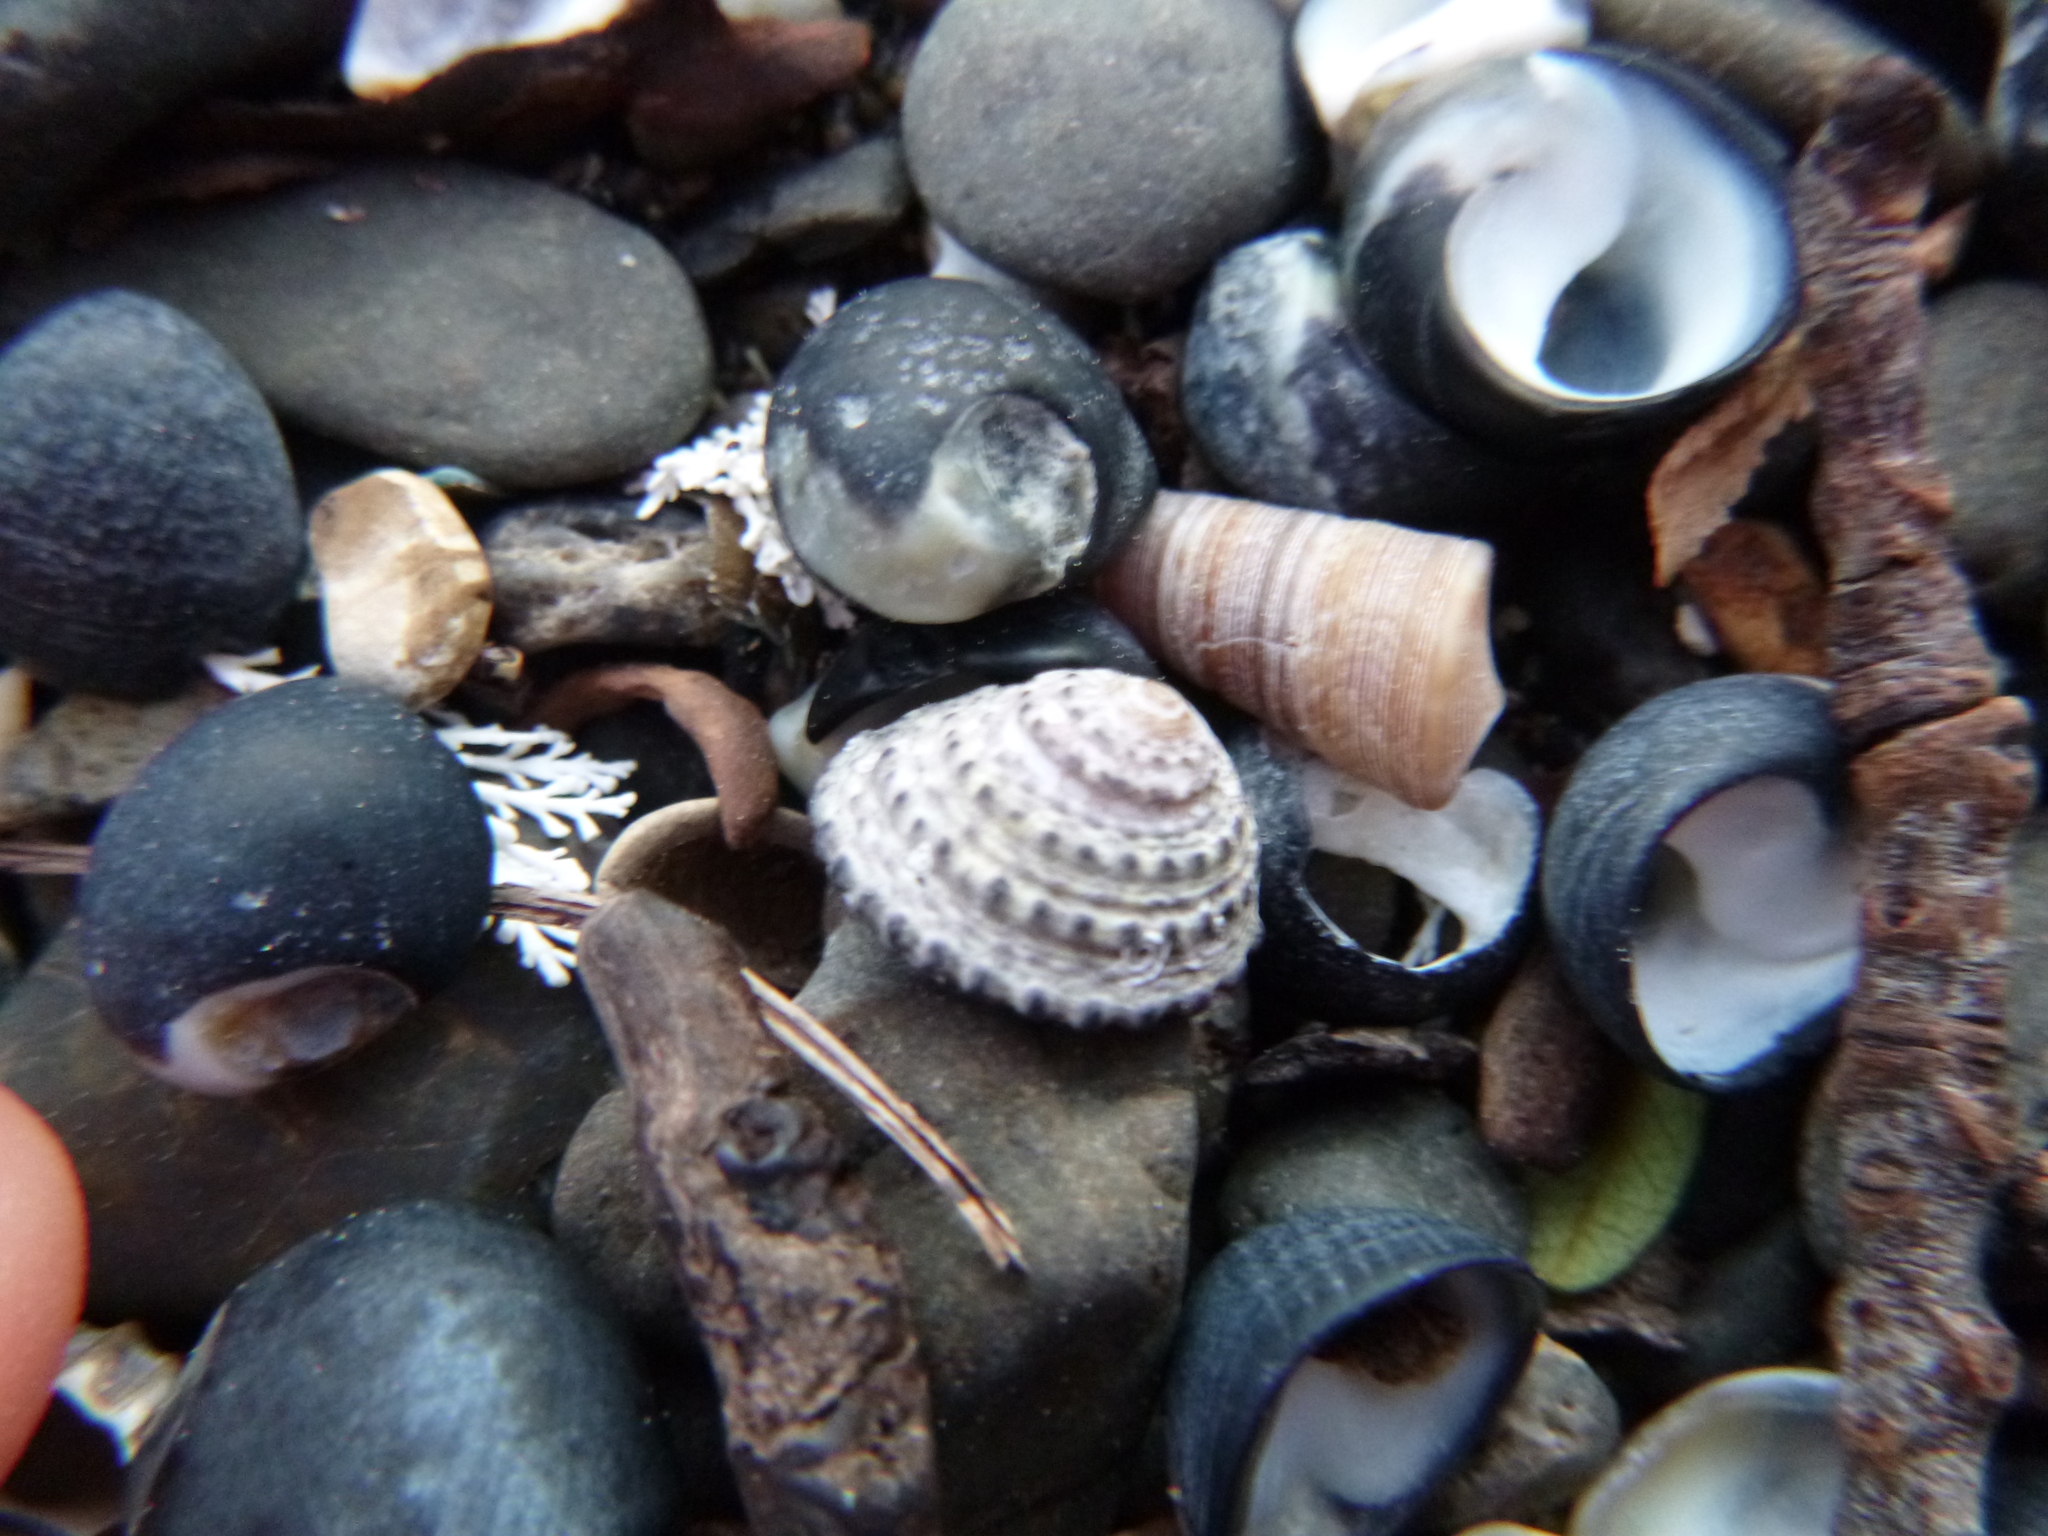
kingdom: Animalia
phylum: Mollusca
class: Gastropoda
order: Trochida
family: Trochidae
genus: Diloma
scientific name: Diloma bicanaliculatum
